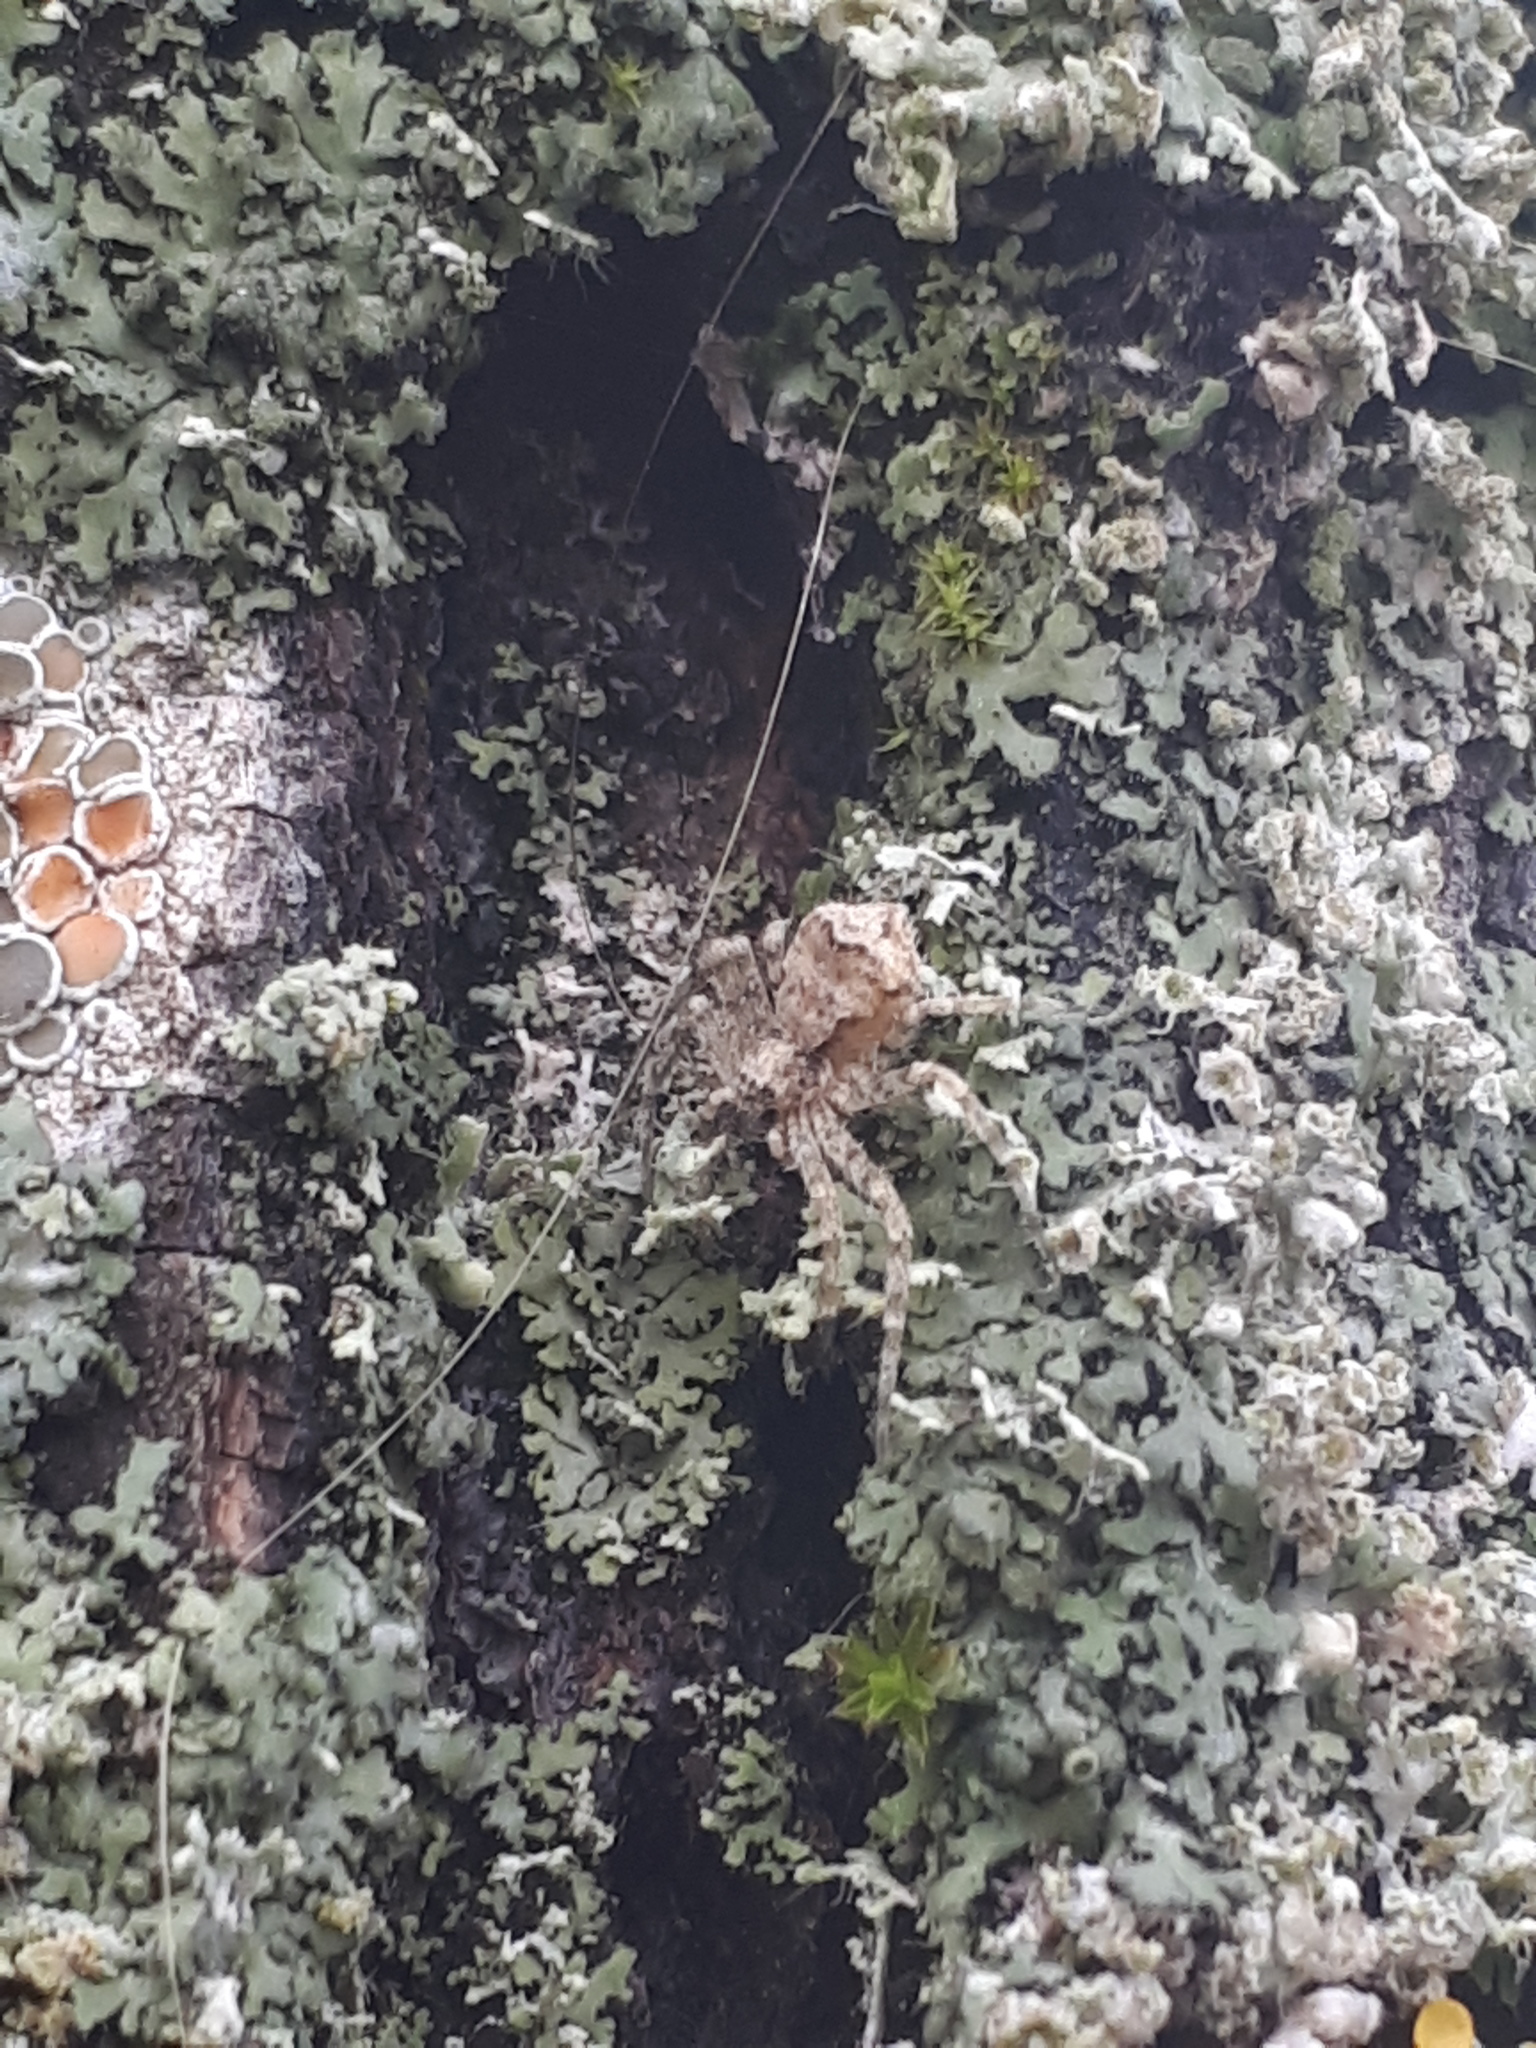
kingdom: Animalia
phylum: Arthropoda
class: Arachnida
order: Araneae
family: Philodromidae
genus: Philodromus
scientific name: Philodromus margaritatus
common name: Lichen running-spider
